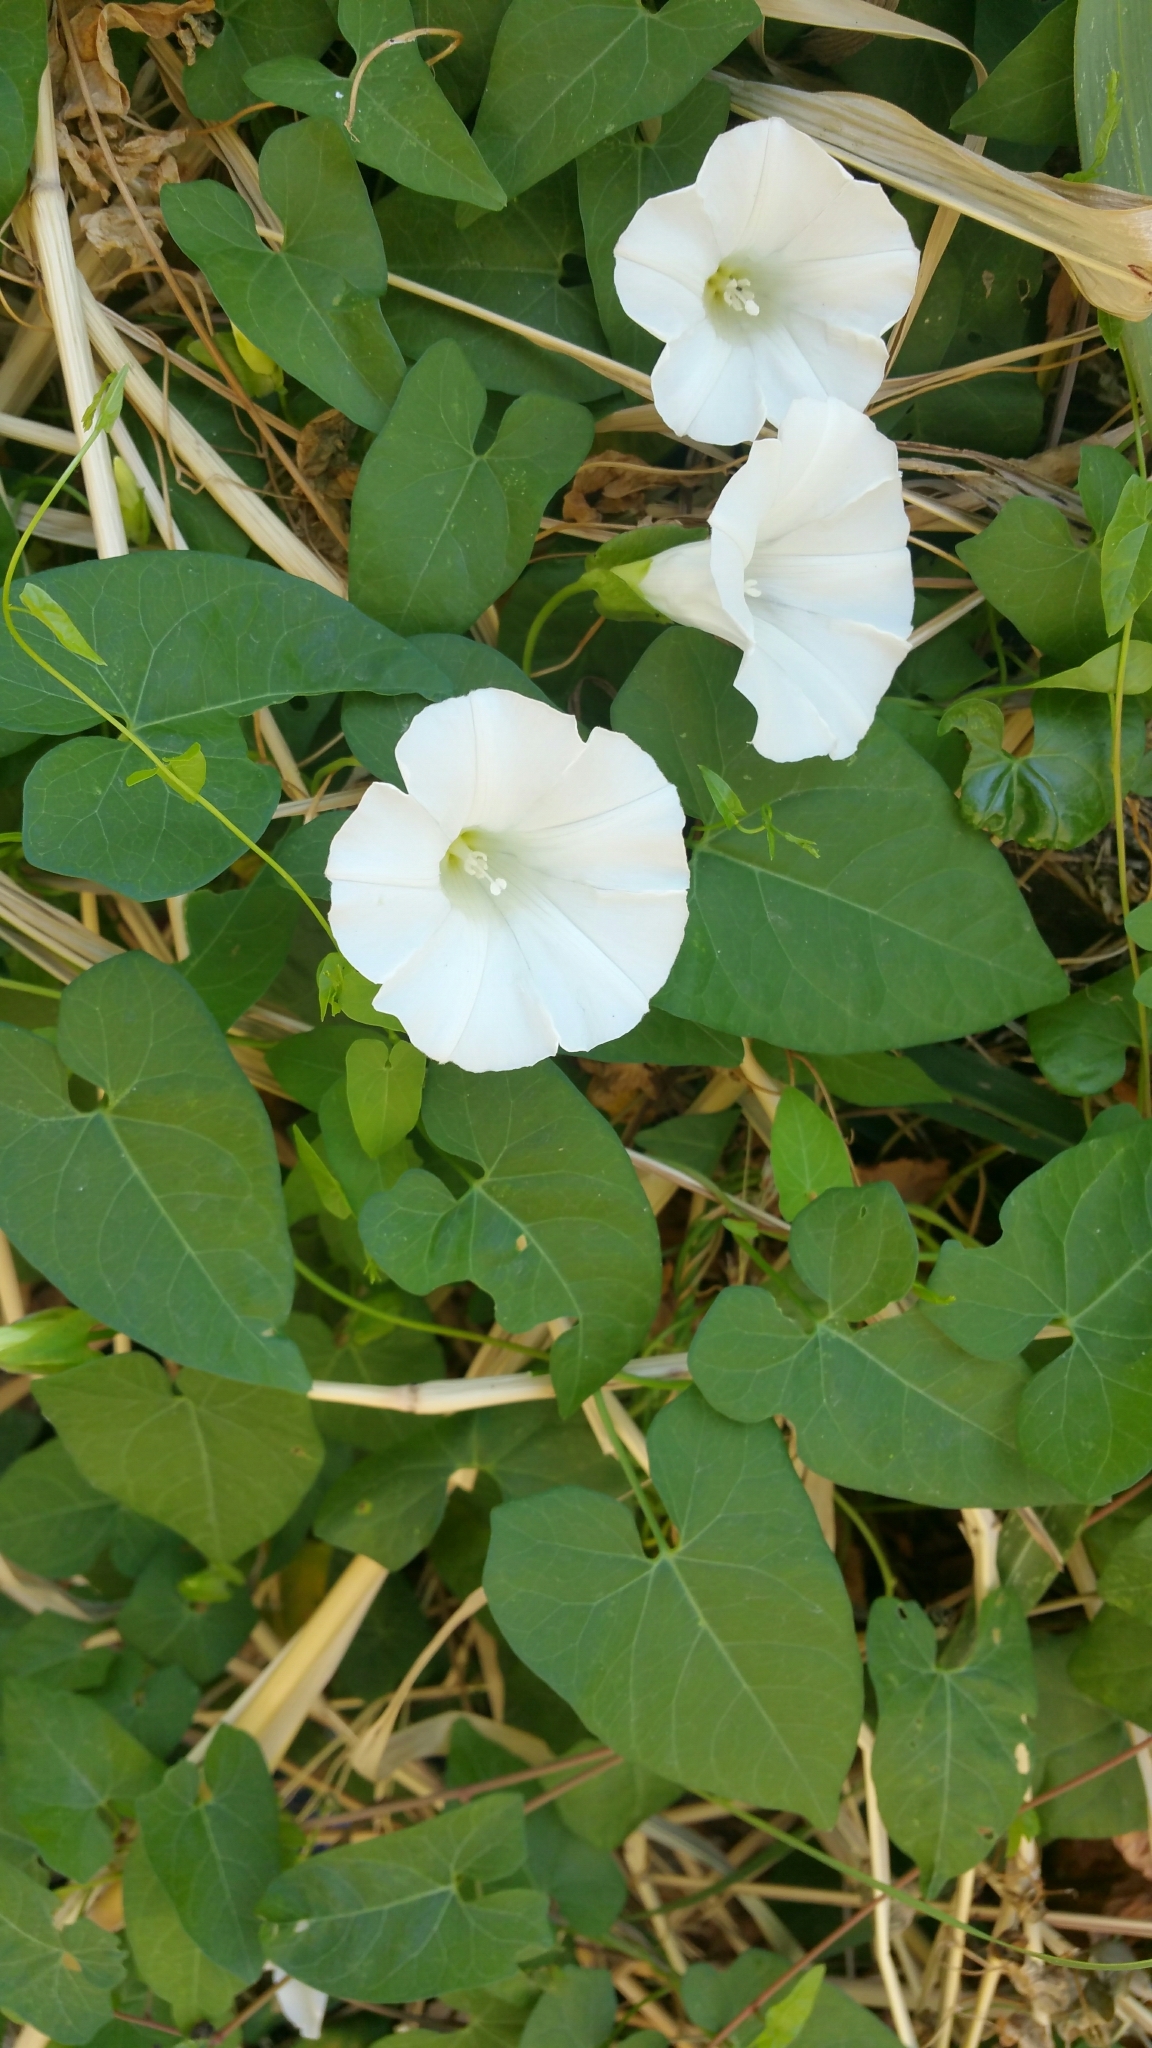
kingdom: Plantae
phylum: Tracheophyta
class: Magnoliopsida
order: Solanales
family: Convolvulaceae
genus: Calystegia
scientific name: Calystegia sepium
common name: Hedge bindweed
